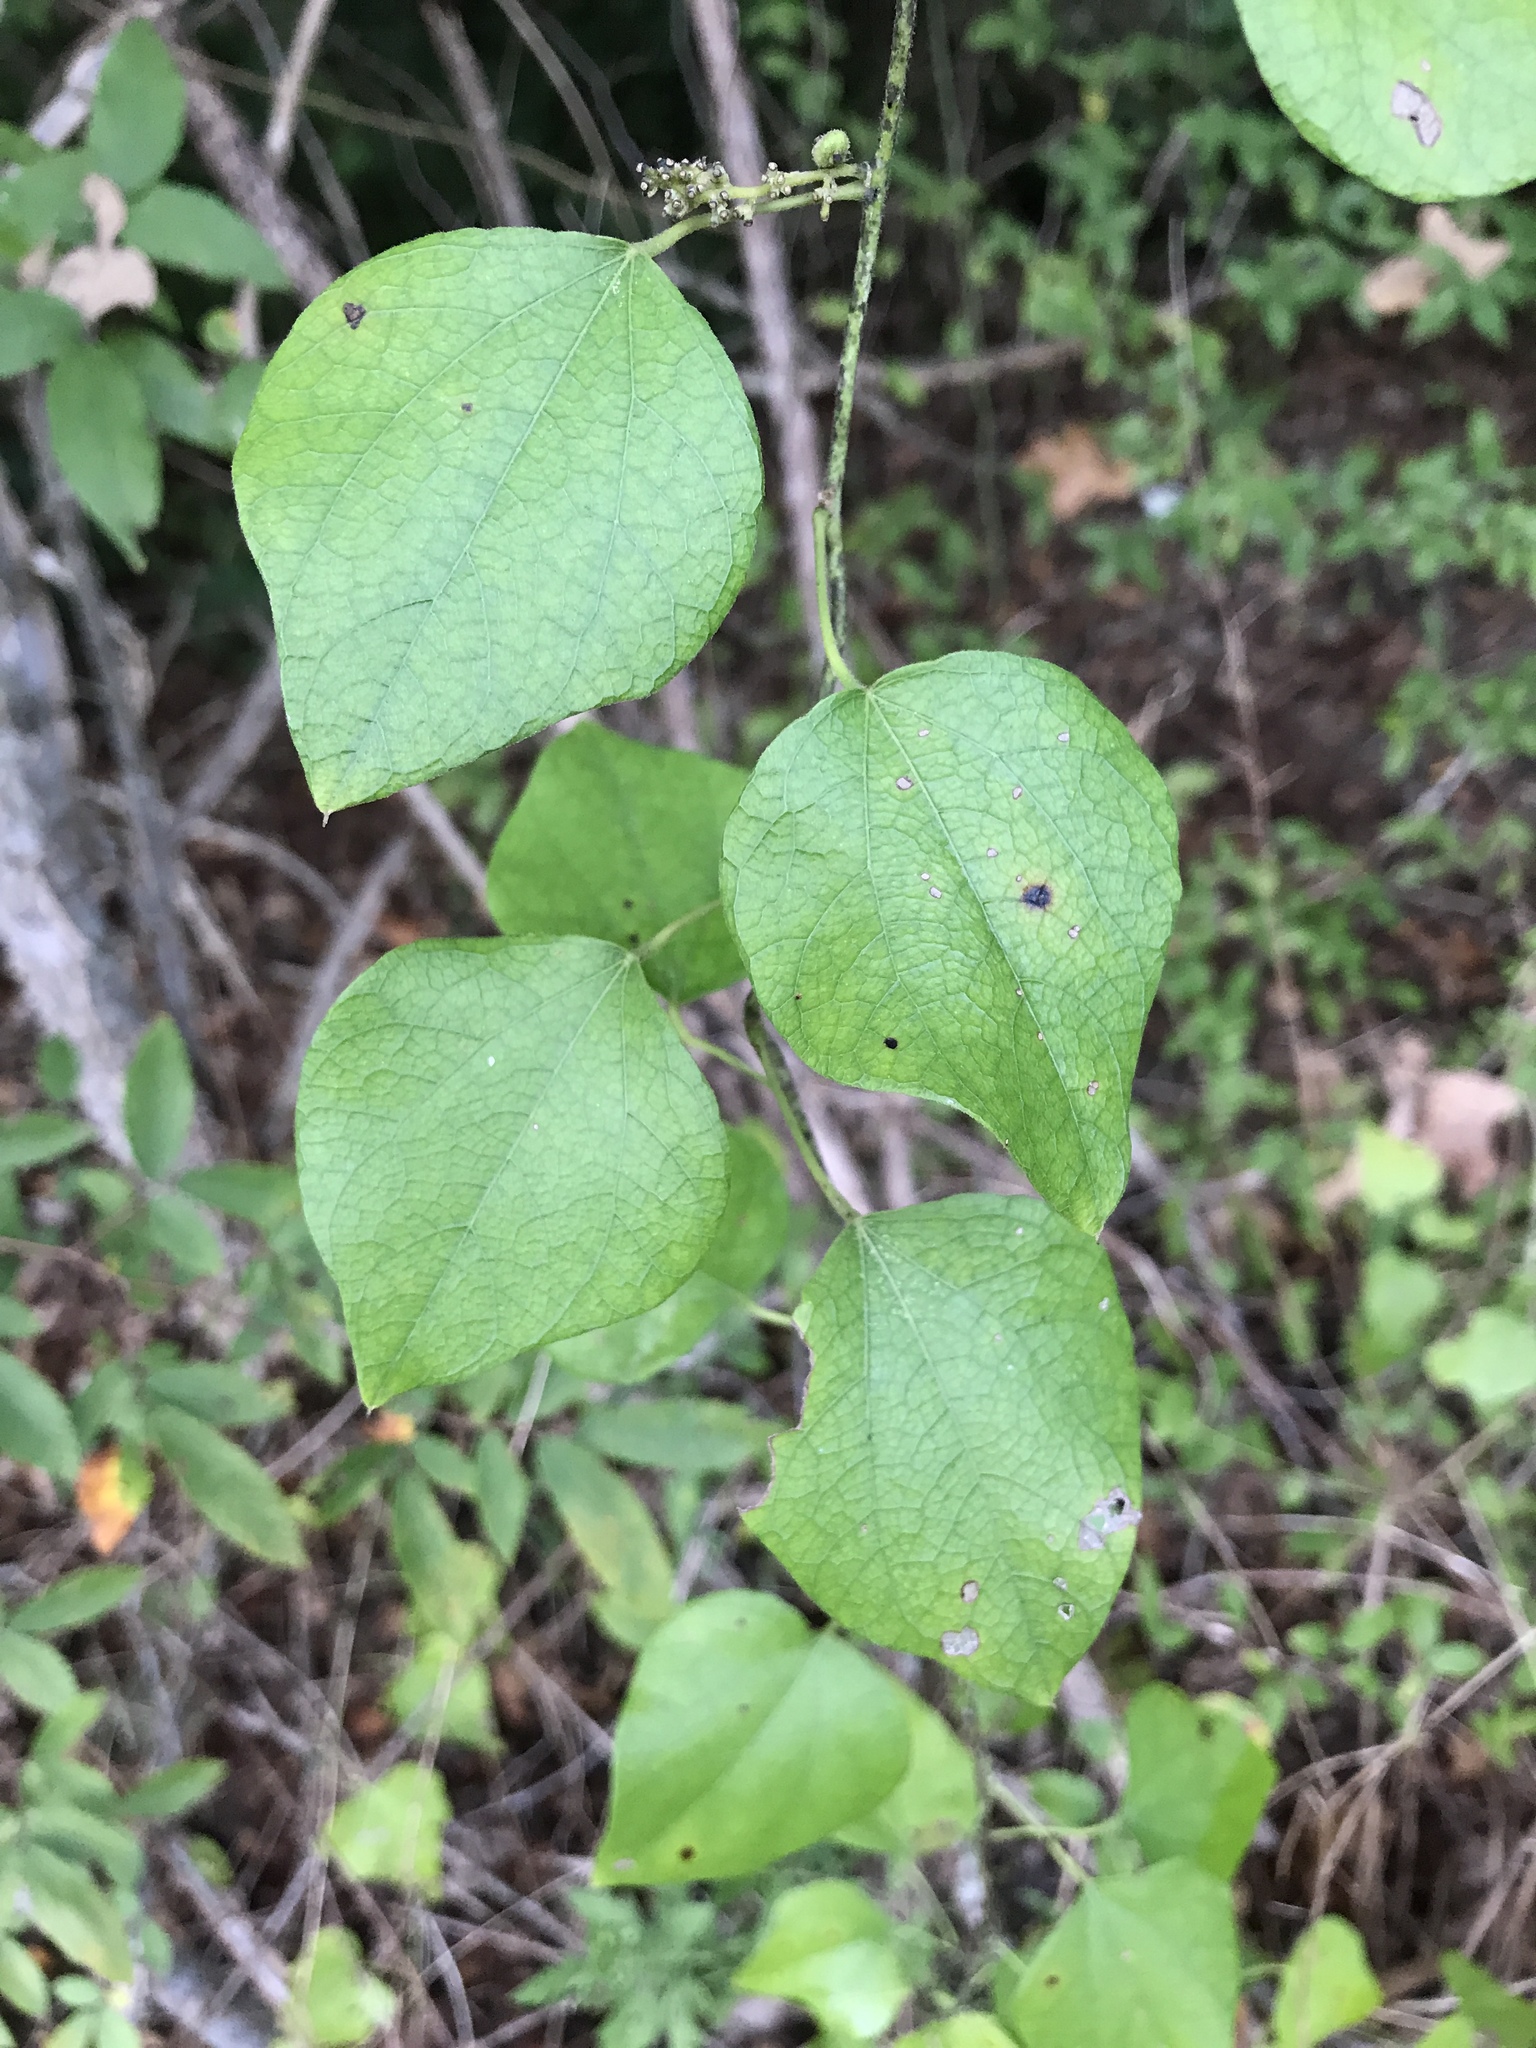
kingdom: Plantae
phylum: Tracheophyta
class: Magnoliopsida
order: Ranunculales
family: Menispermaceae
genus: Cocculus
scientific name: Cocculus carolinus
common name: Carolina moonseed
